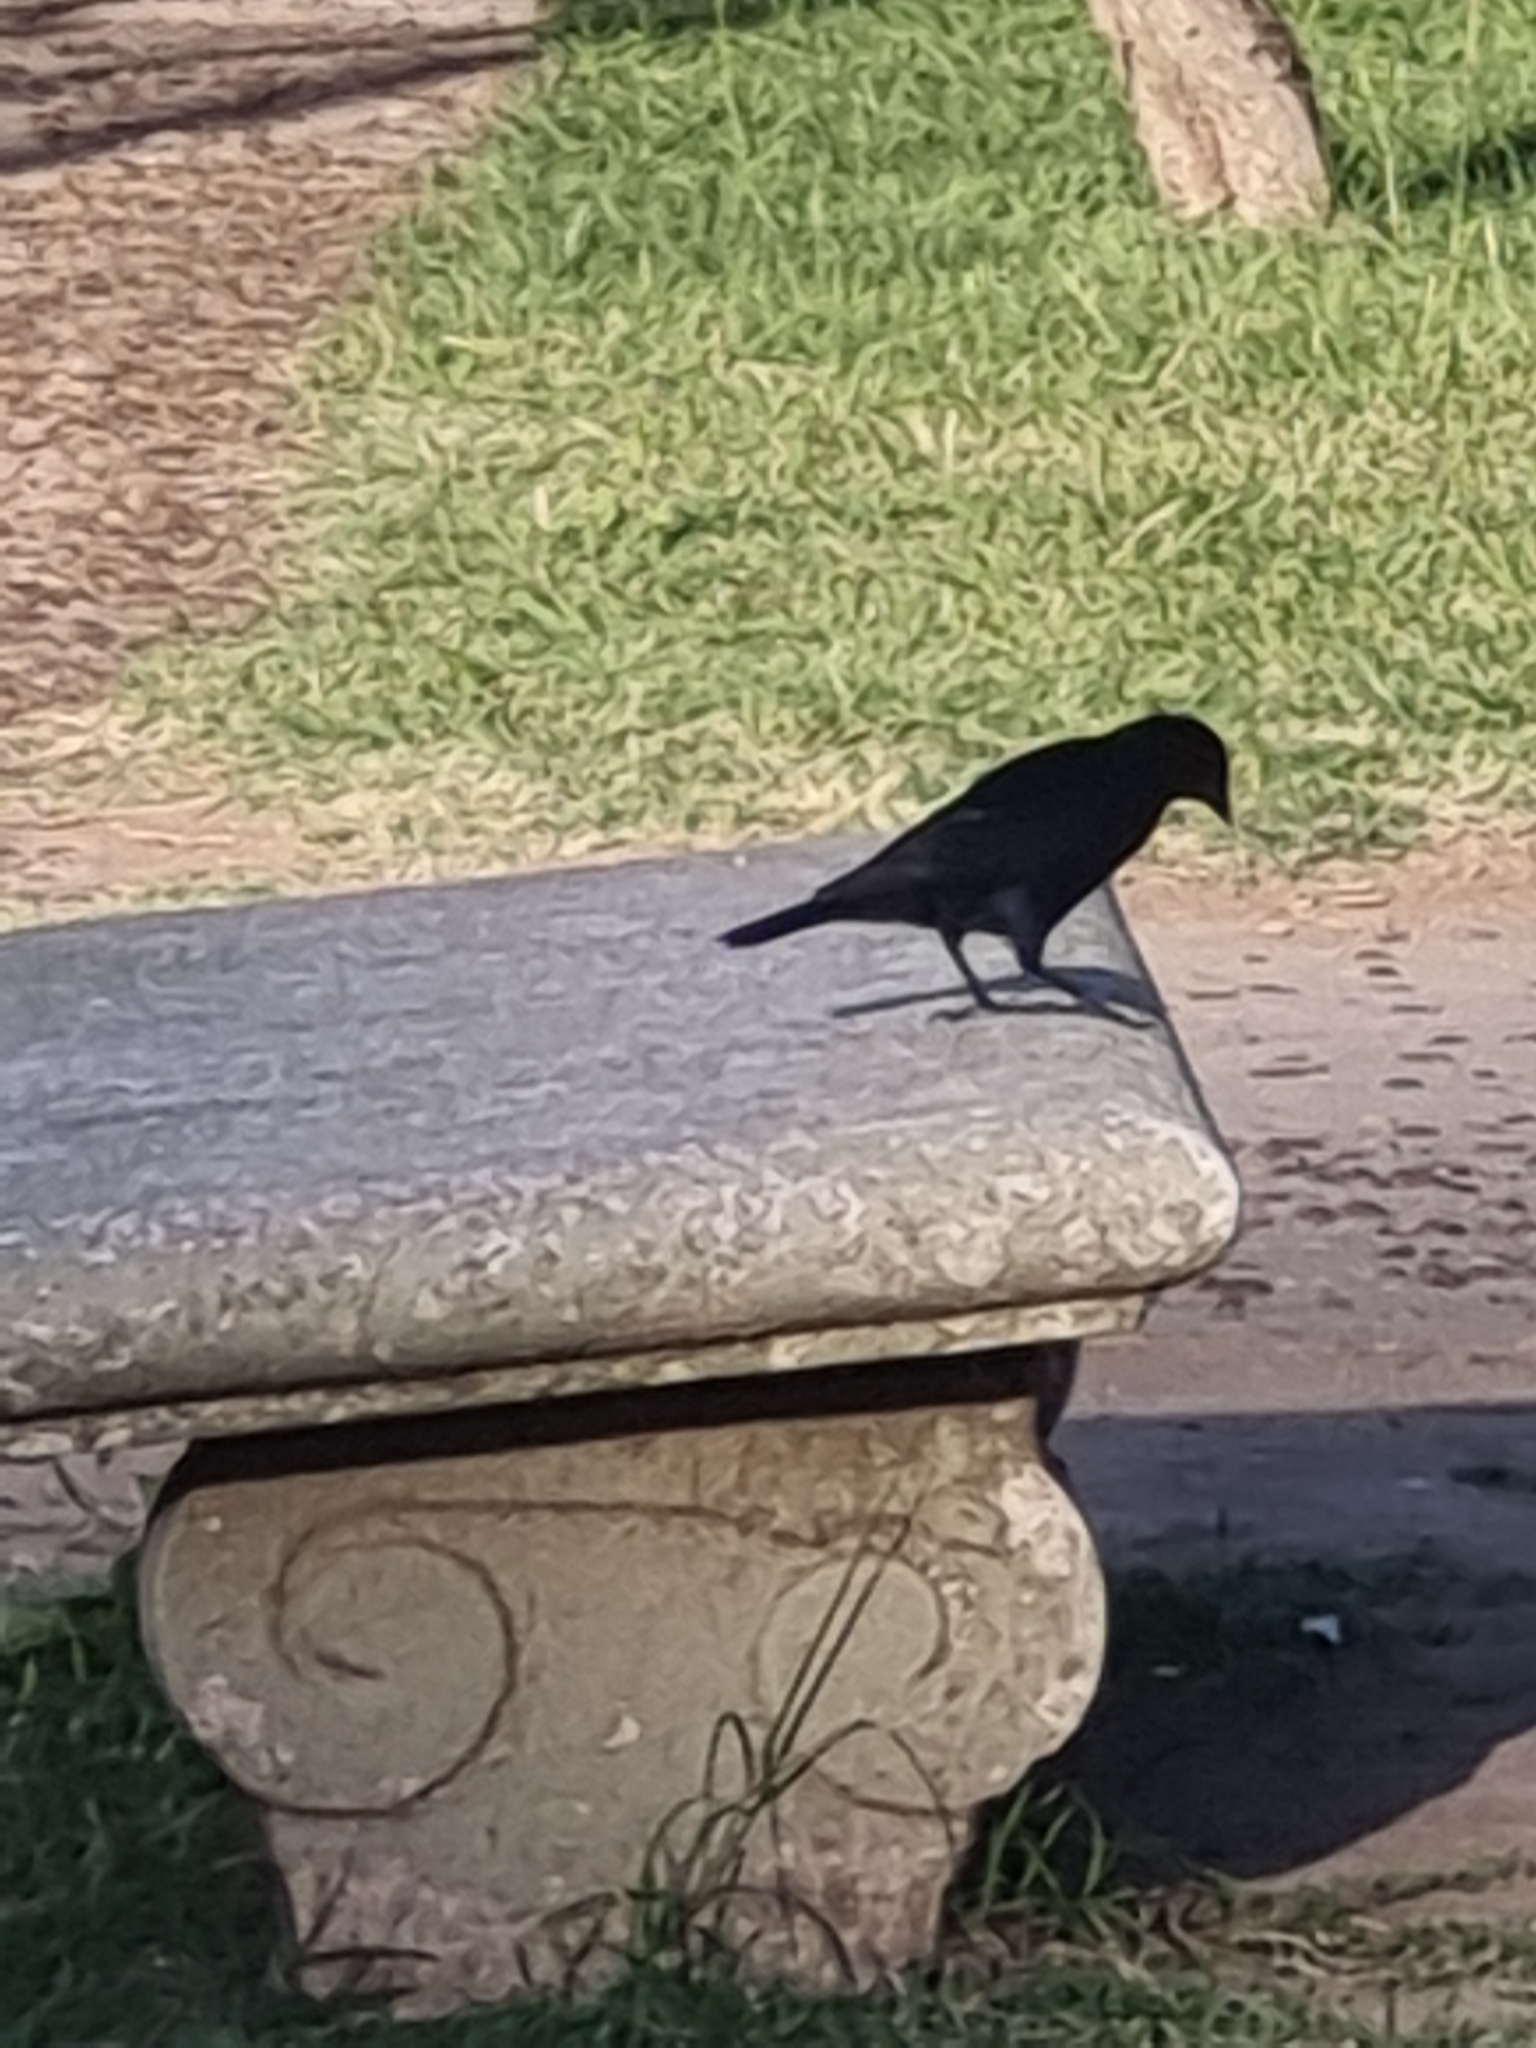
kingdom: Animalia
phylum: Chordata
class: Aves
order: Passeriformes
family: Icteridae
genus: Molothrus
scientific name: Molothrus bonariensis
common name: Shiny cowbird
